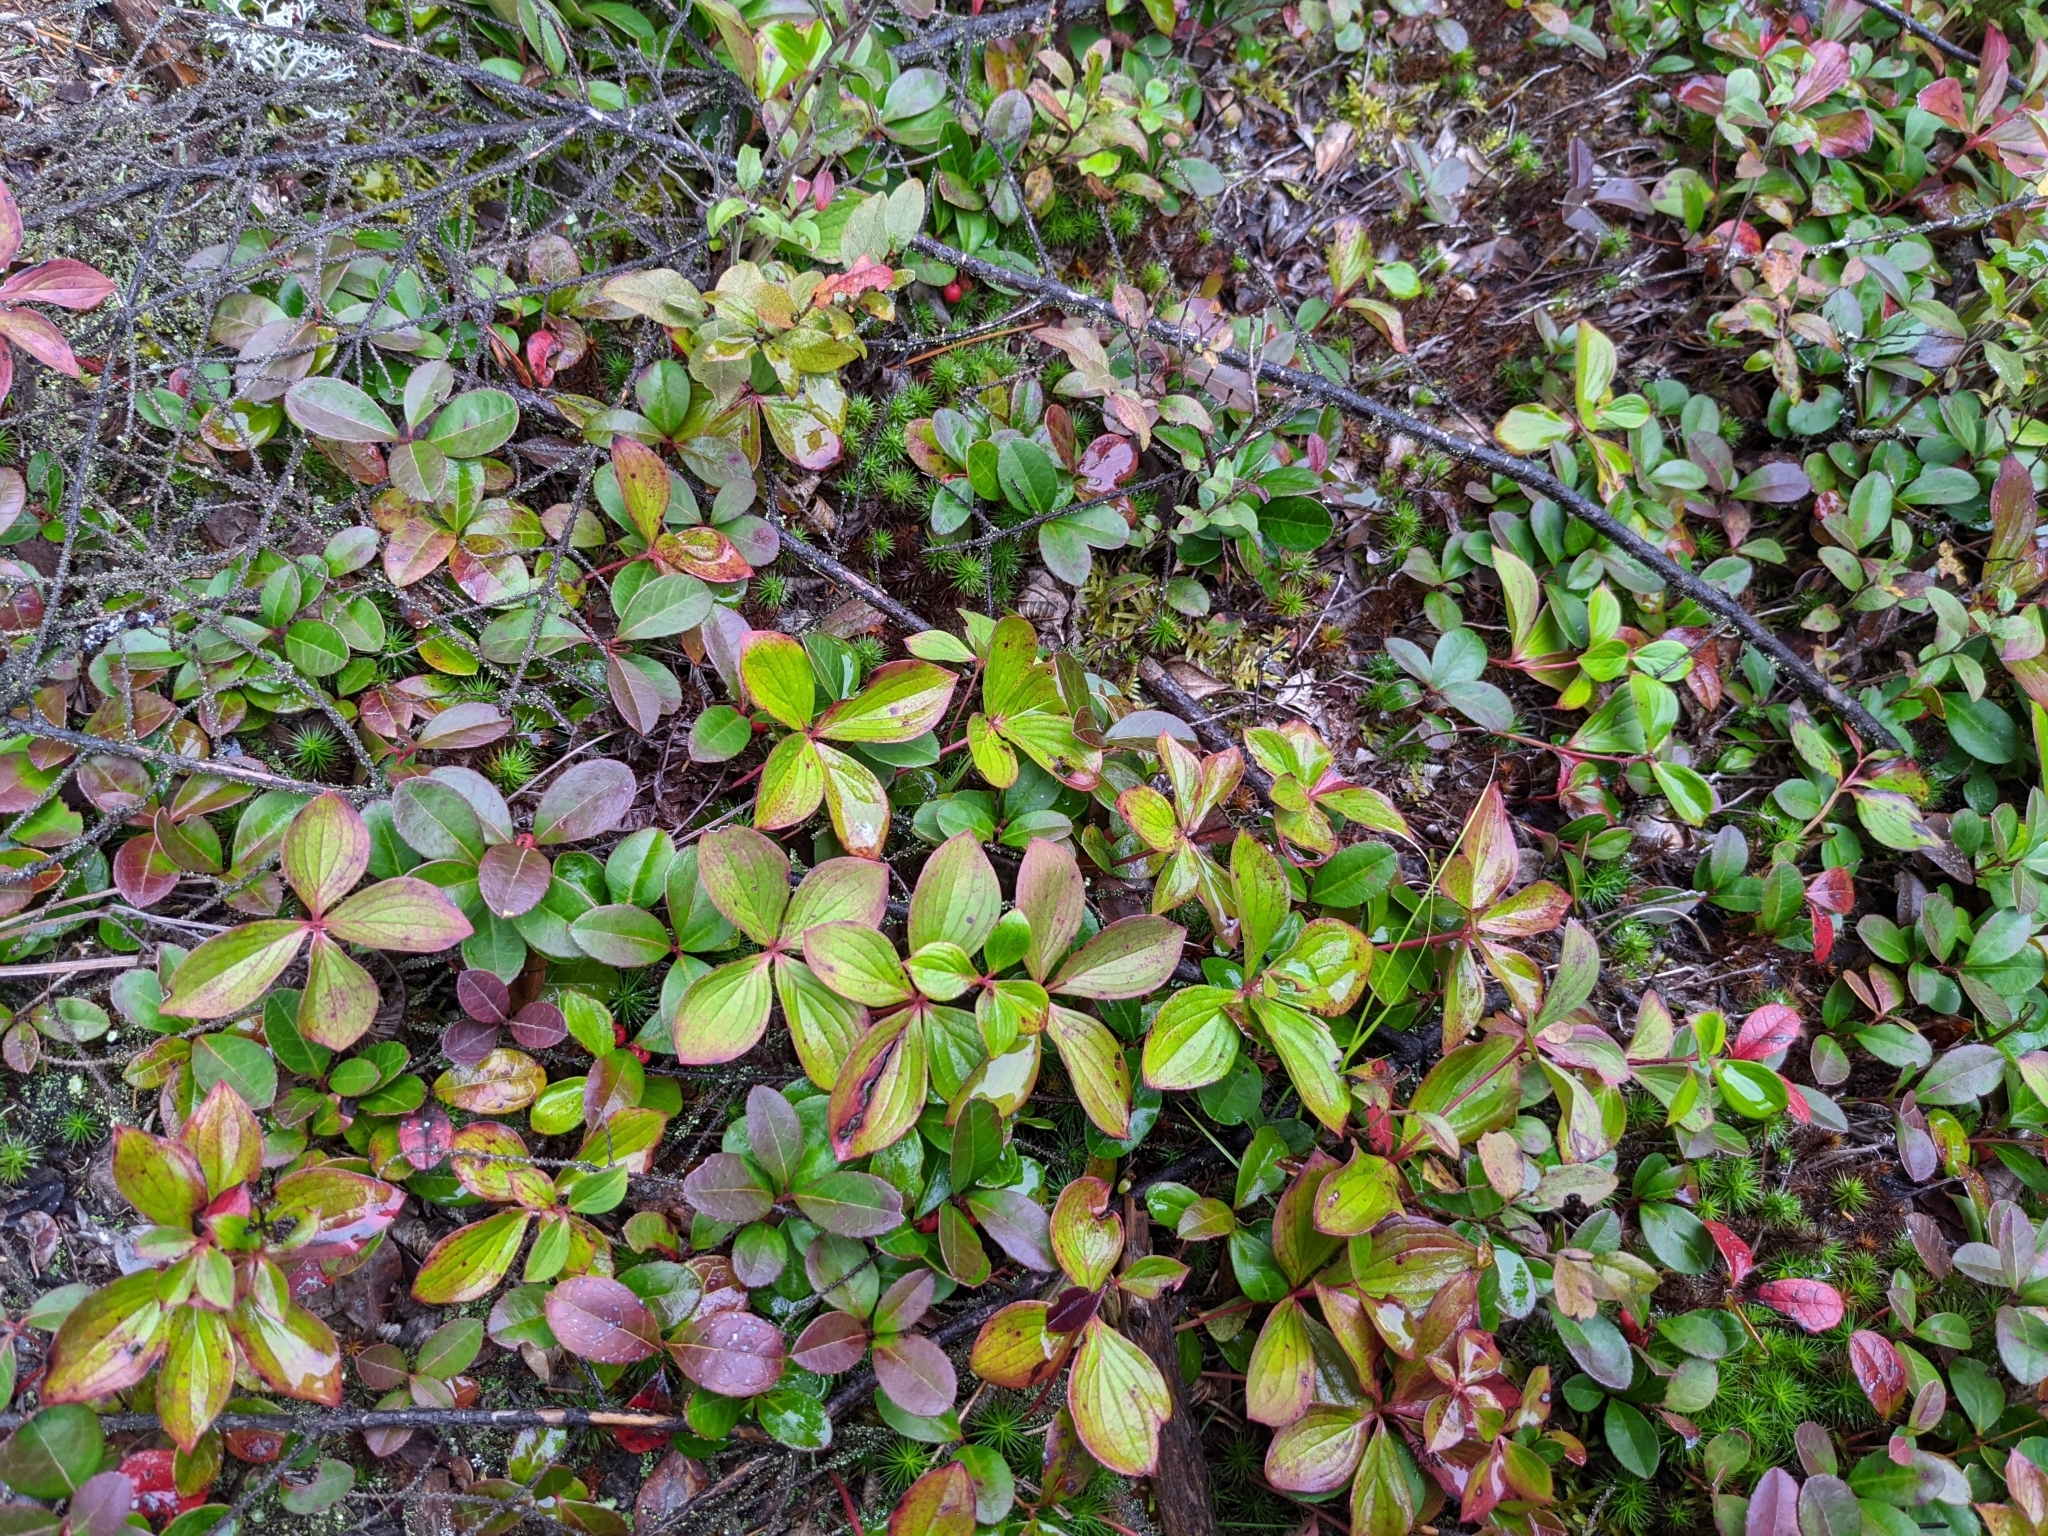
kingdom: Plantae
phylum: Tracheophyta
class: Magnoliopsida
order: Cornales
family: Cornaceae
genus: Cornus
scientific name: Cornus canadensis
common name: Creeping dogwood
